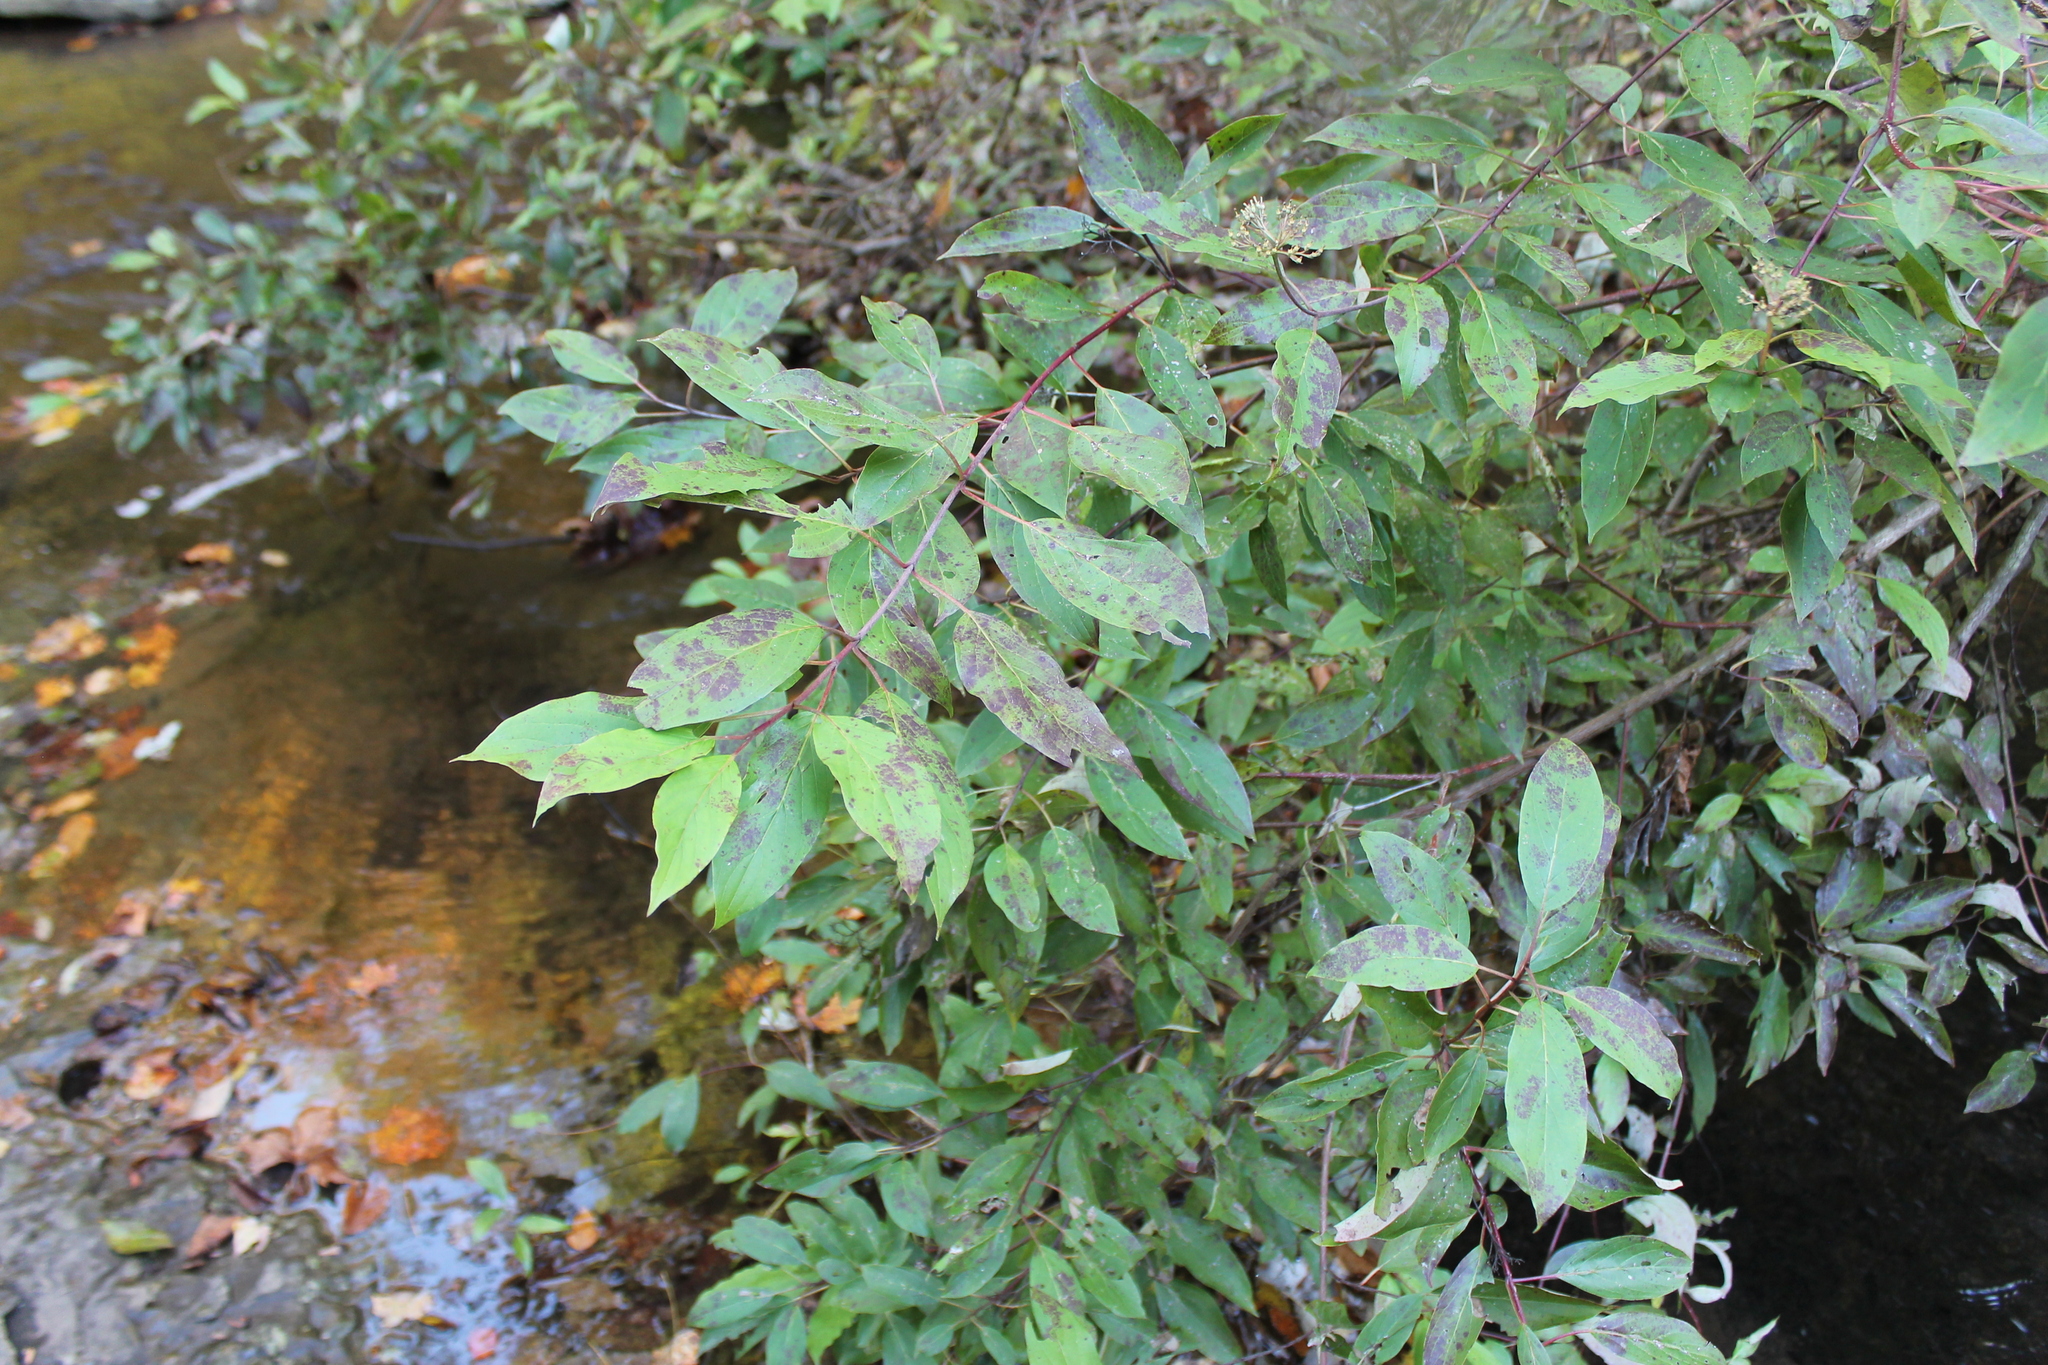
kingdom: Plantae
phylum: Tracheophyta
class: Magnoliopsida
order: Cornales
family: Cornaceae
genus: Cornus
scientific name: Cornus obliqua
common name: Pale dogwood
